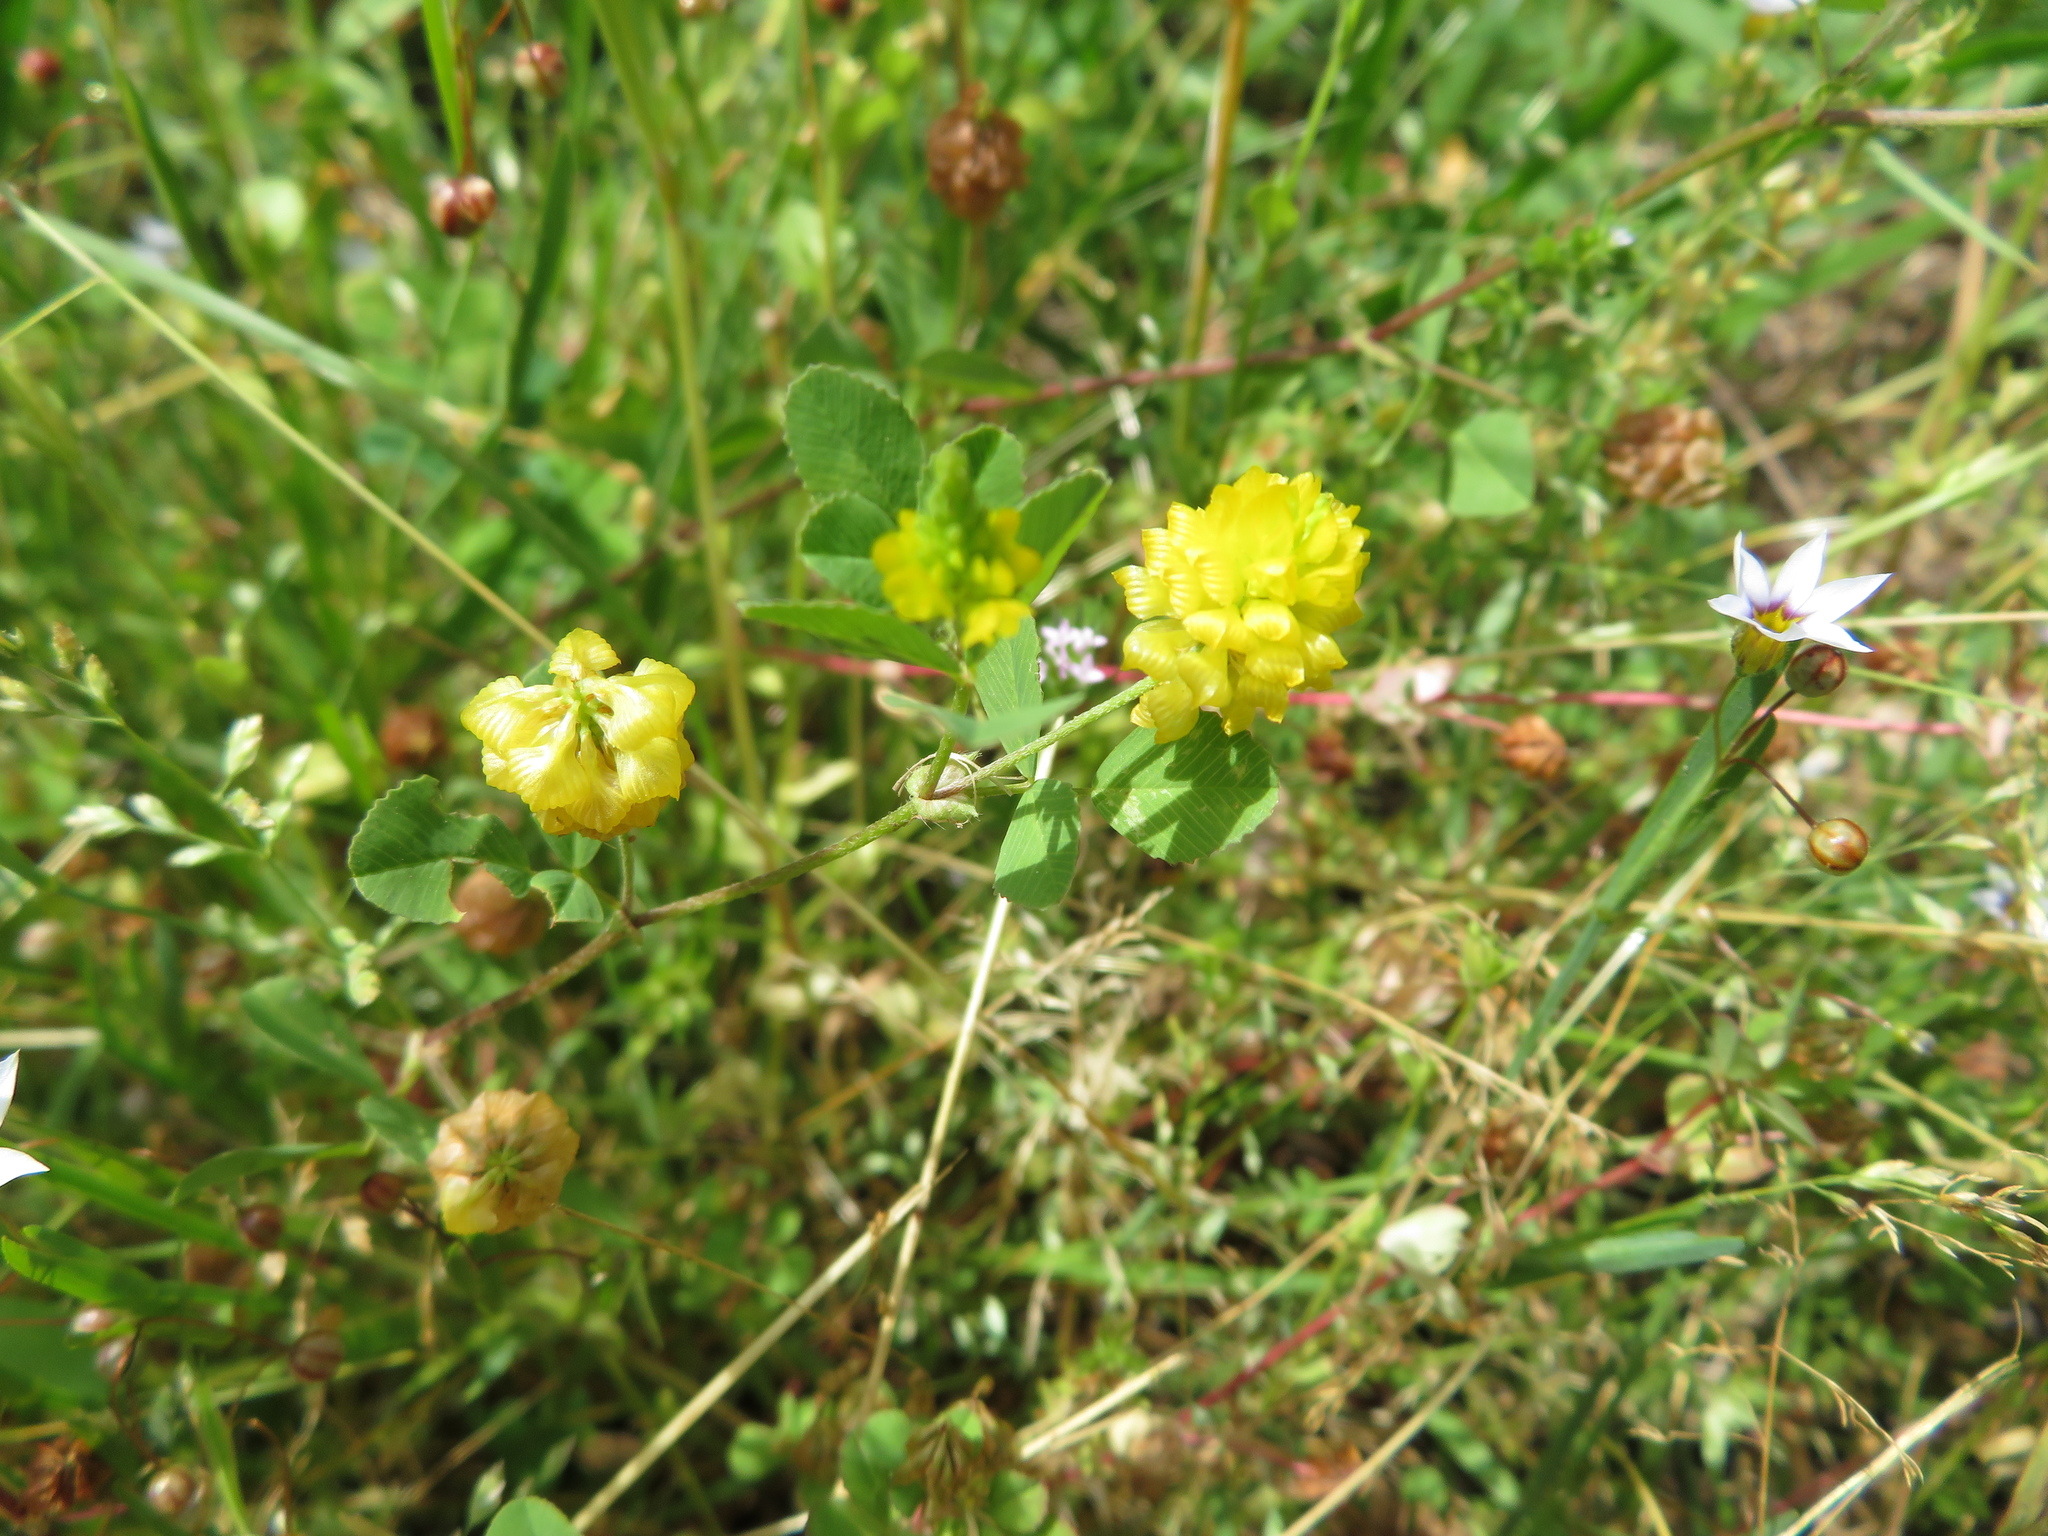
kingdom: Plantae
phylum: Tracheophyta
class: Magnoliopsida
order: Fabales
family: Fabaceae
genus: Trifolium
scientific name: Trifolium campestre
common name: Field clover
